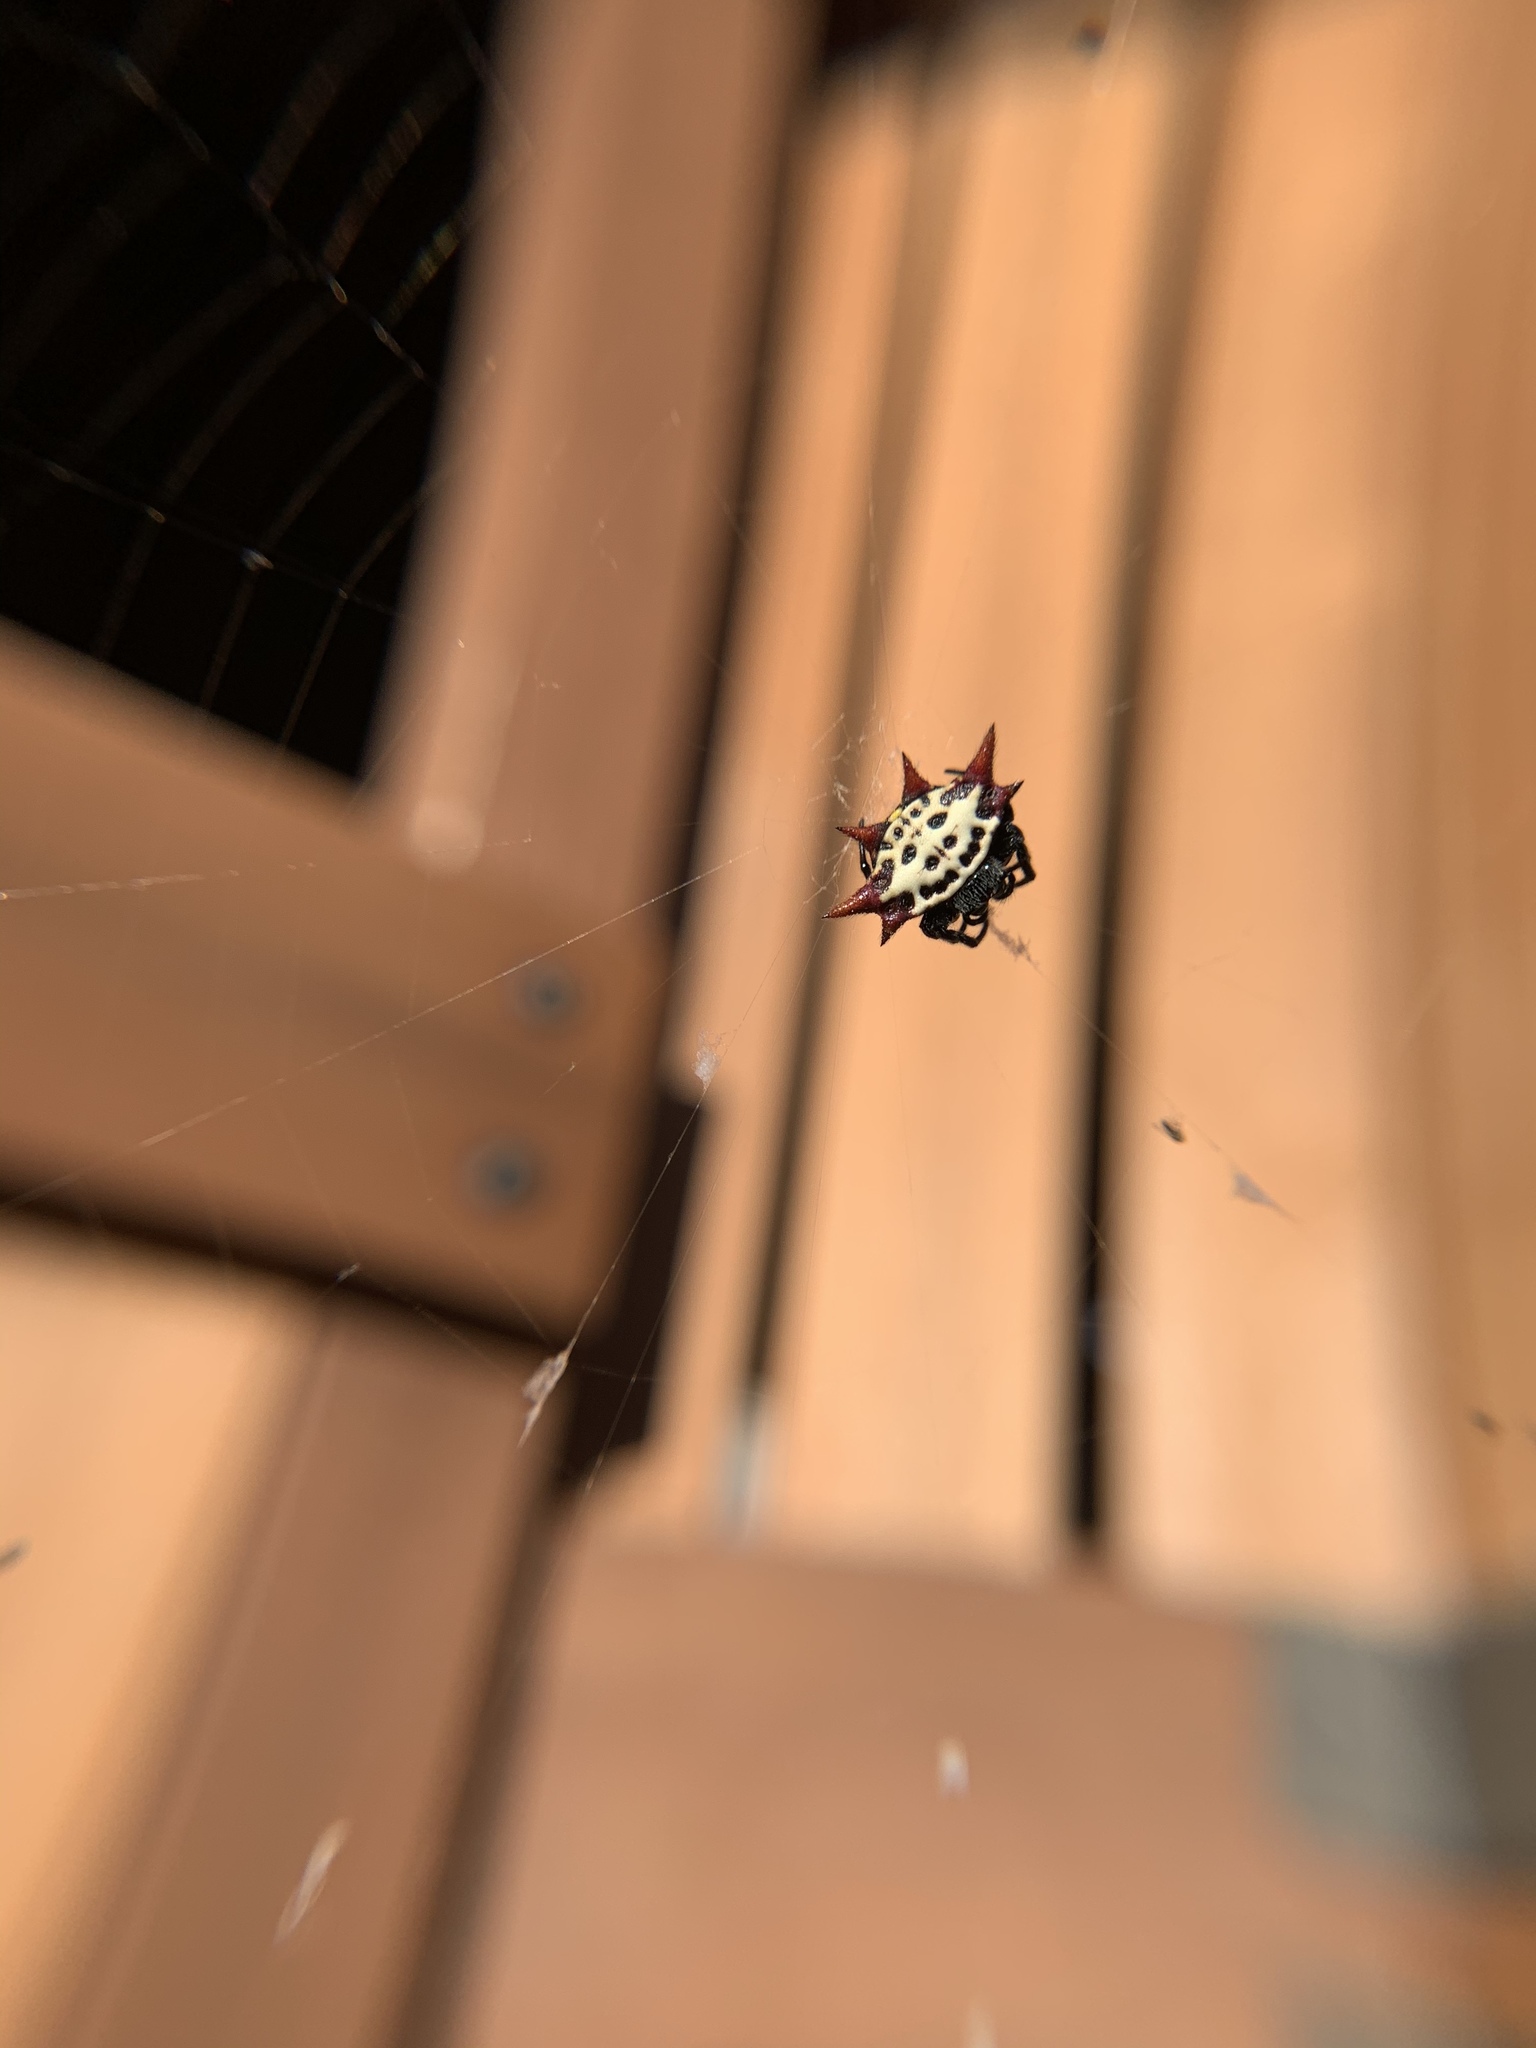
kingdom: Animalia
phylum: Arthropoda
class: Arachnida
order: Araneae
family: Araneidae
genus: Gasteracantha
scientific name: Gasteracantha cancriformis
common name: Orb weavers
